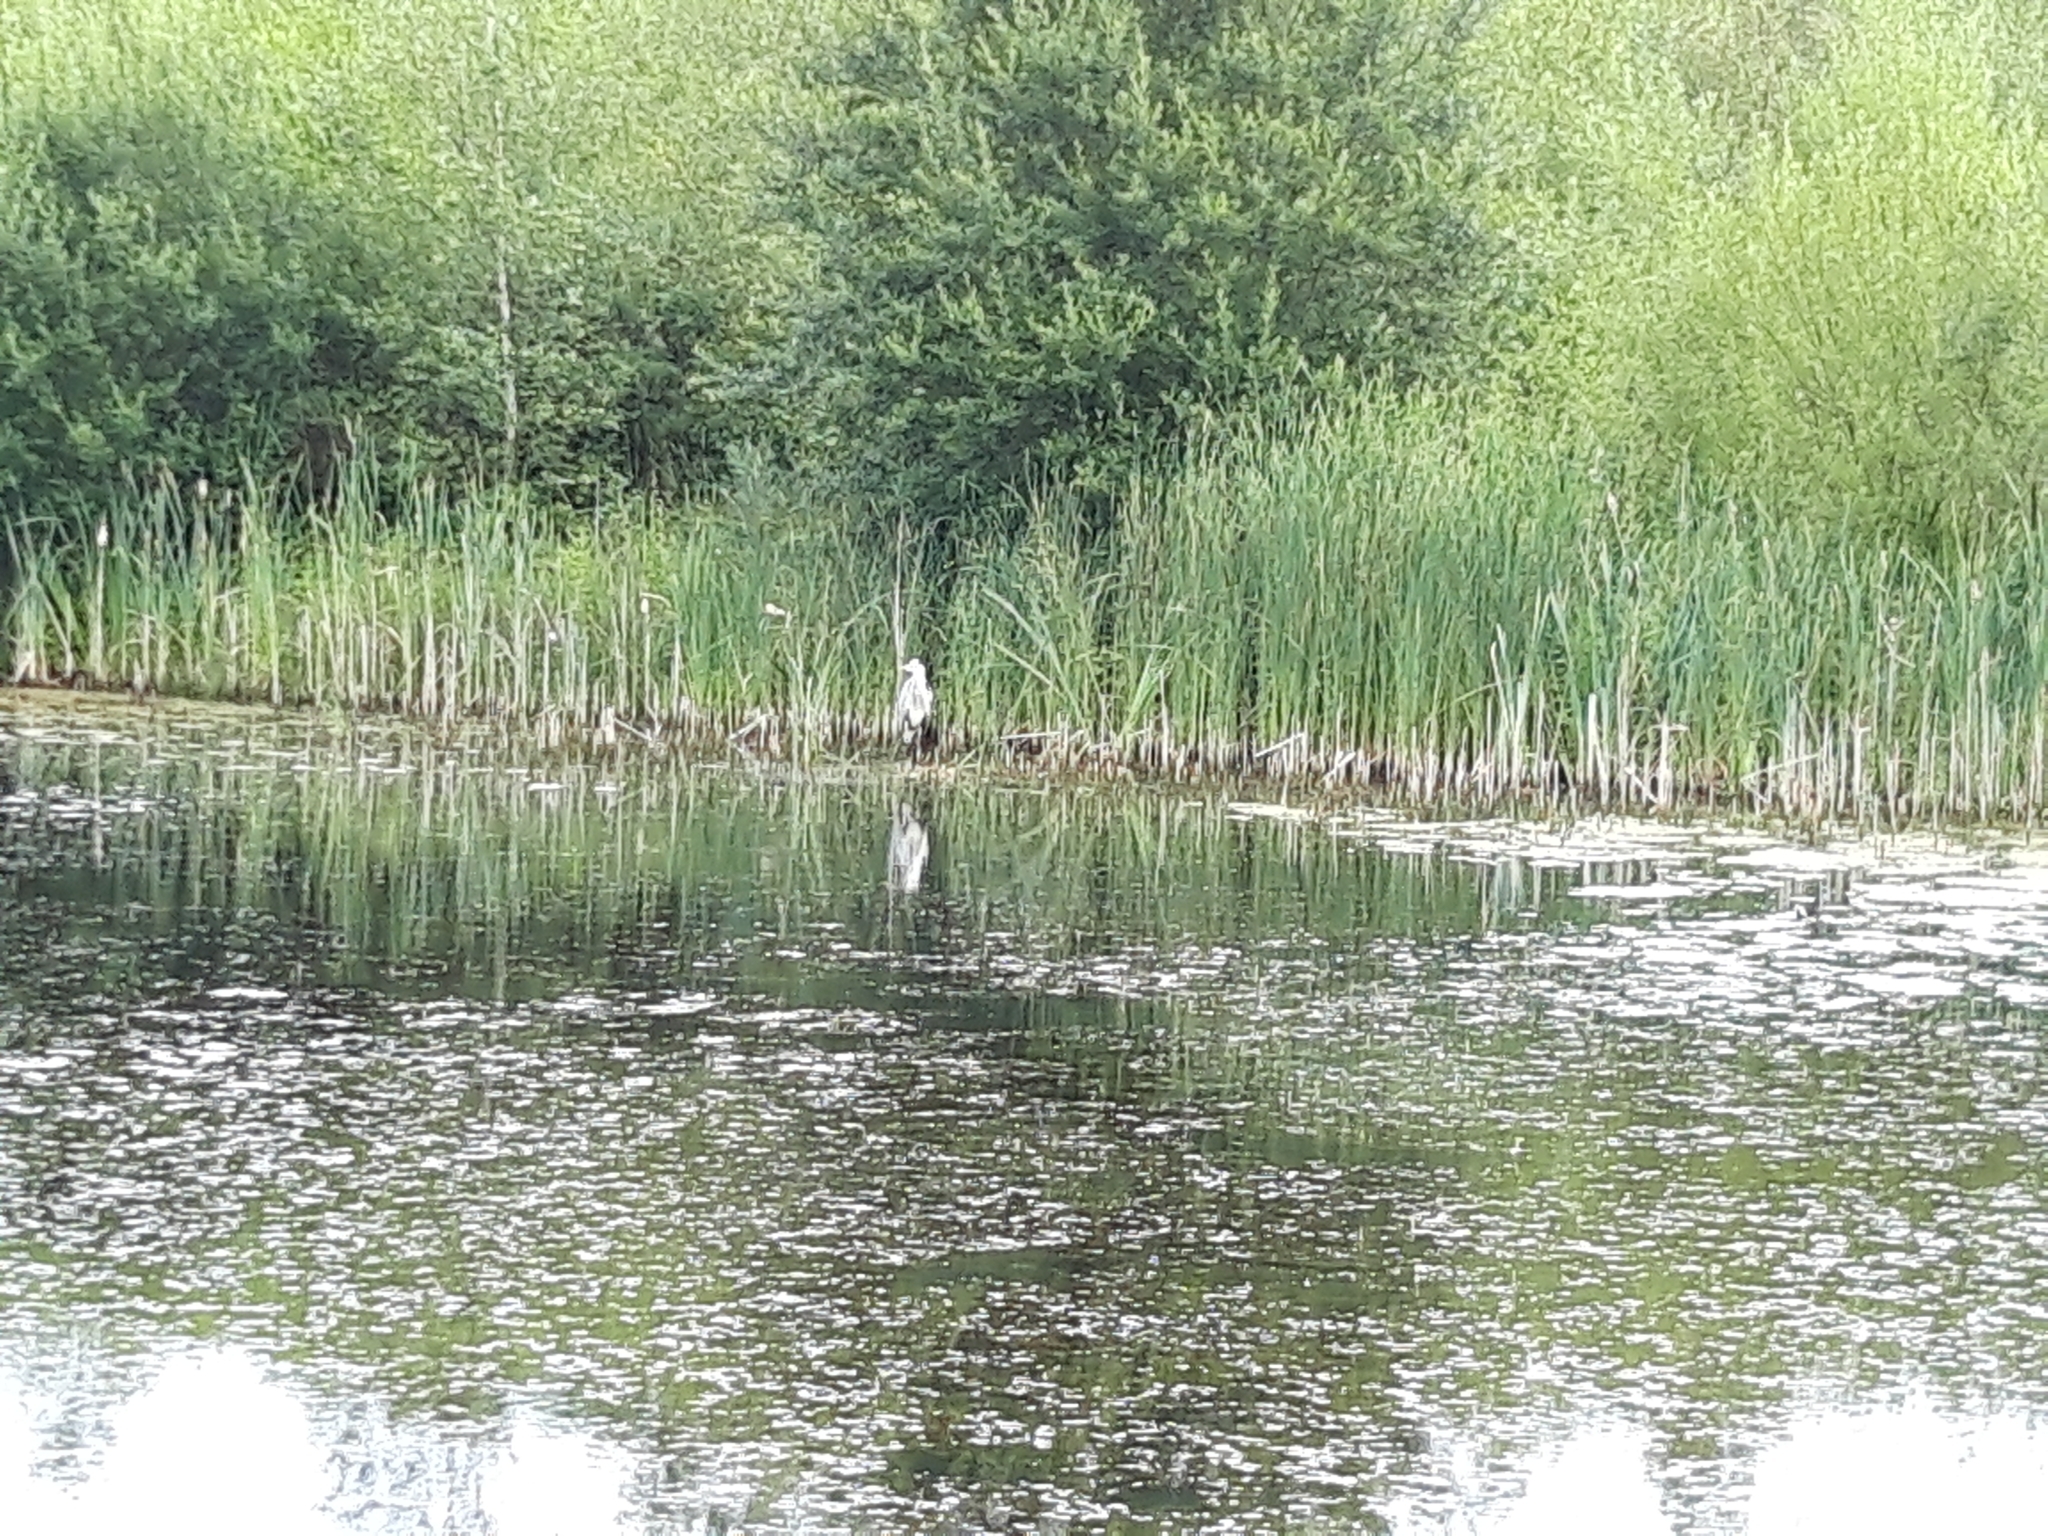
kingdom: Animalia
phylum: Chordata
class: Aves
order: Pelecaniformes
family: Ardeidae
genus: Ardea
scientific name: Ardea cinerea
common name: Grey heron
